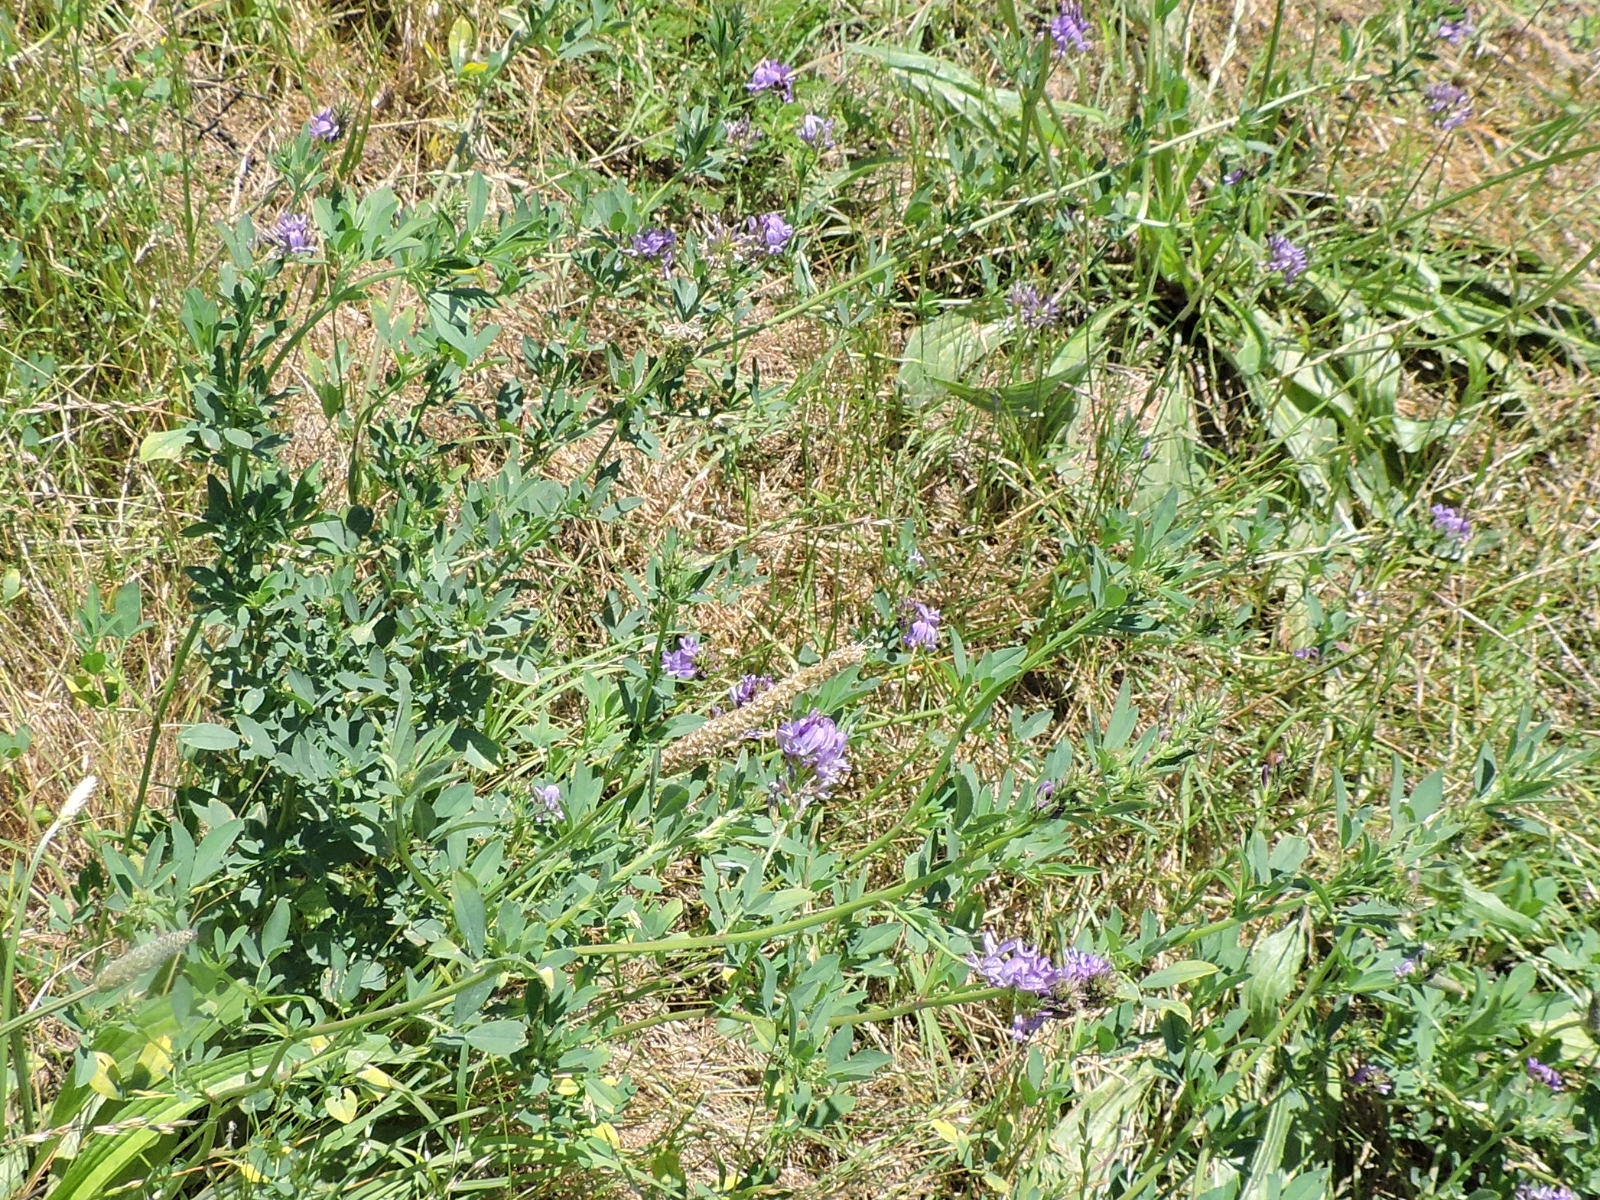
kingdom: Plantae
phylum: Tracheophyta
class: Magnoliopsida
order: Fabales
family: Fabaceae
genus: Medicago
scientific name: Medicago sativa
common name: Alfalfa
